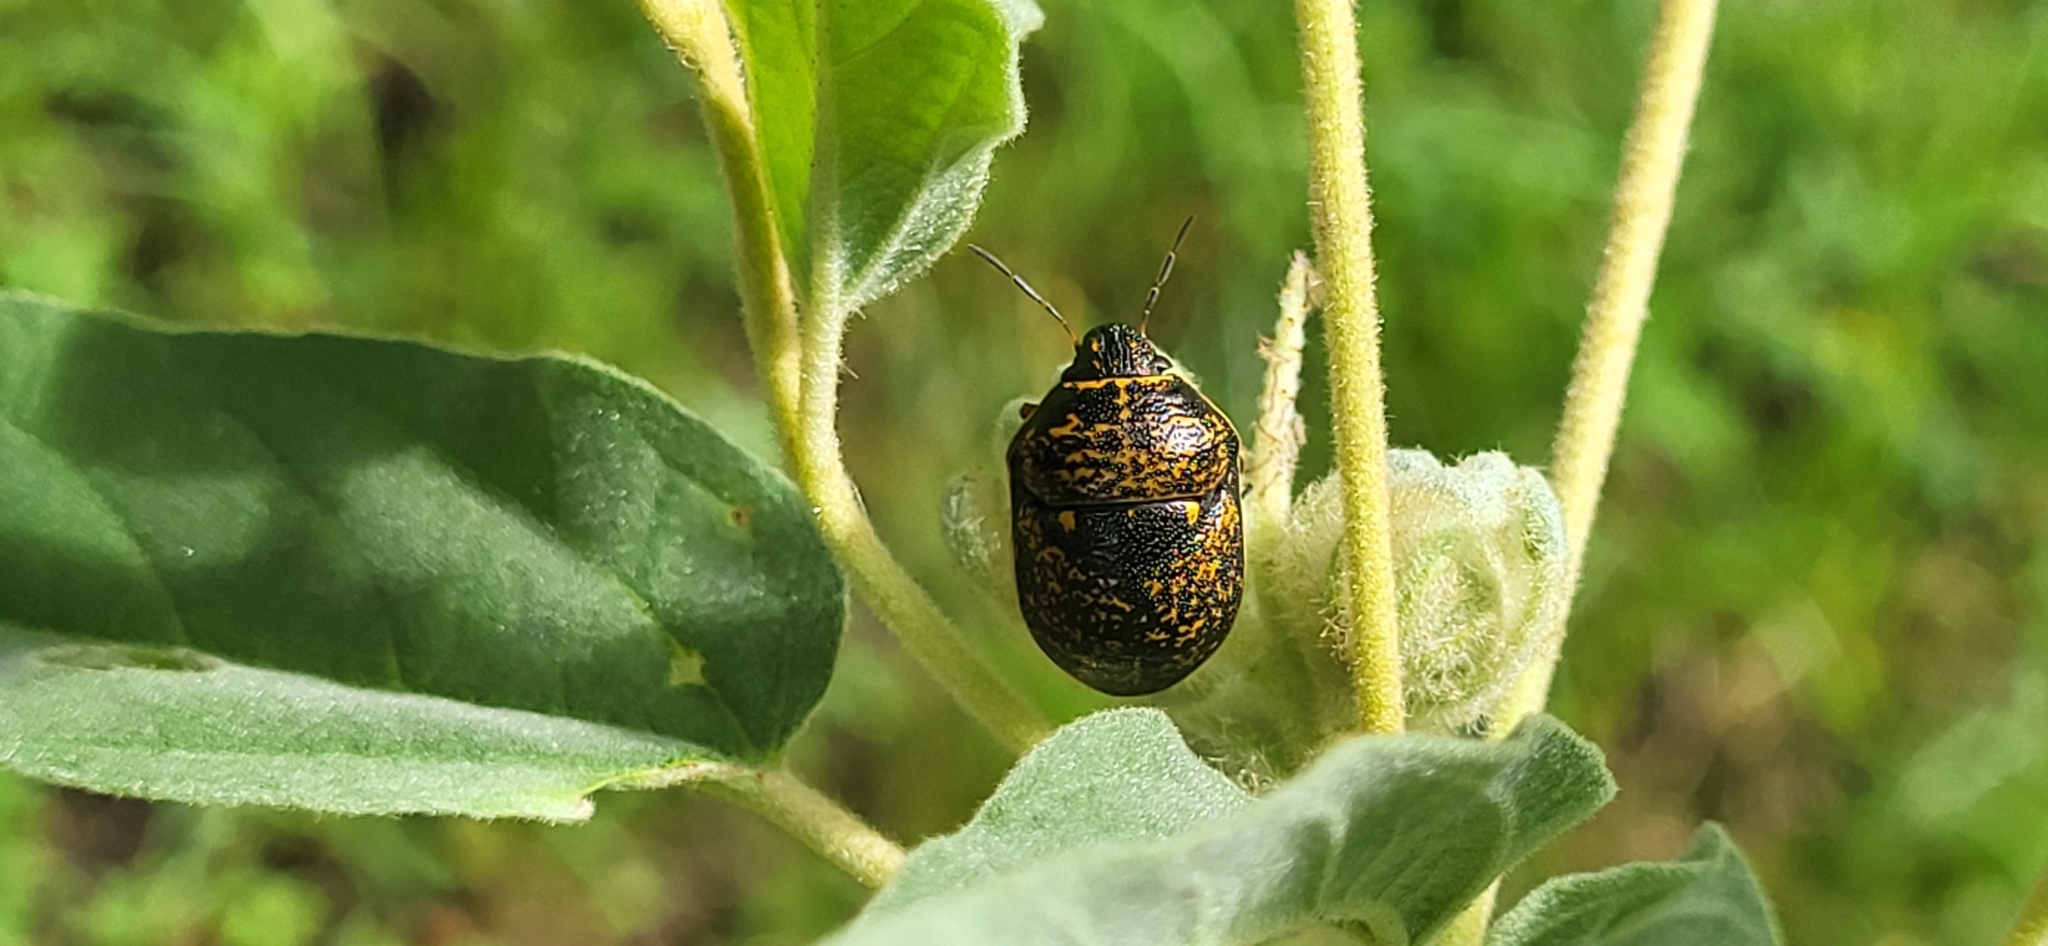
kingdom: Animalia
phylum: Arthropoda
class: Insecta
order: Hemiptera
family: Scutelleridae
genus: Orsilochides
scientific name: Orsilochides guttata
